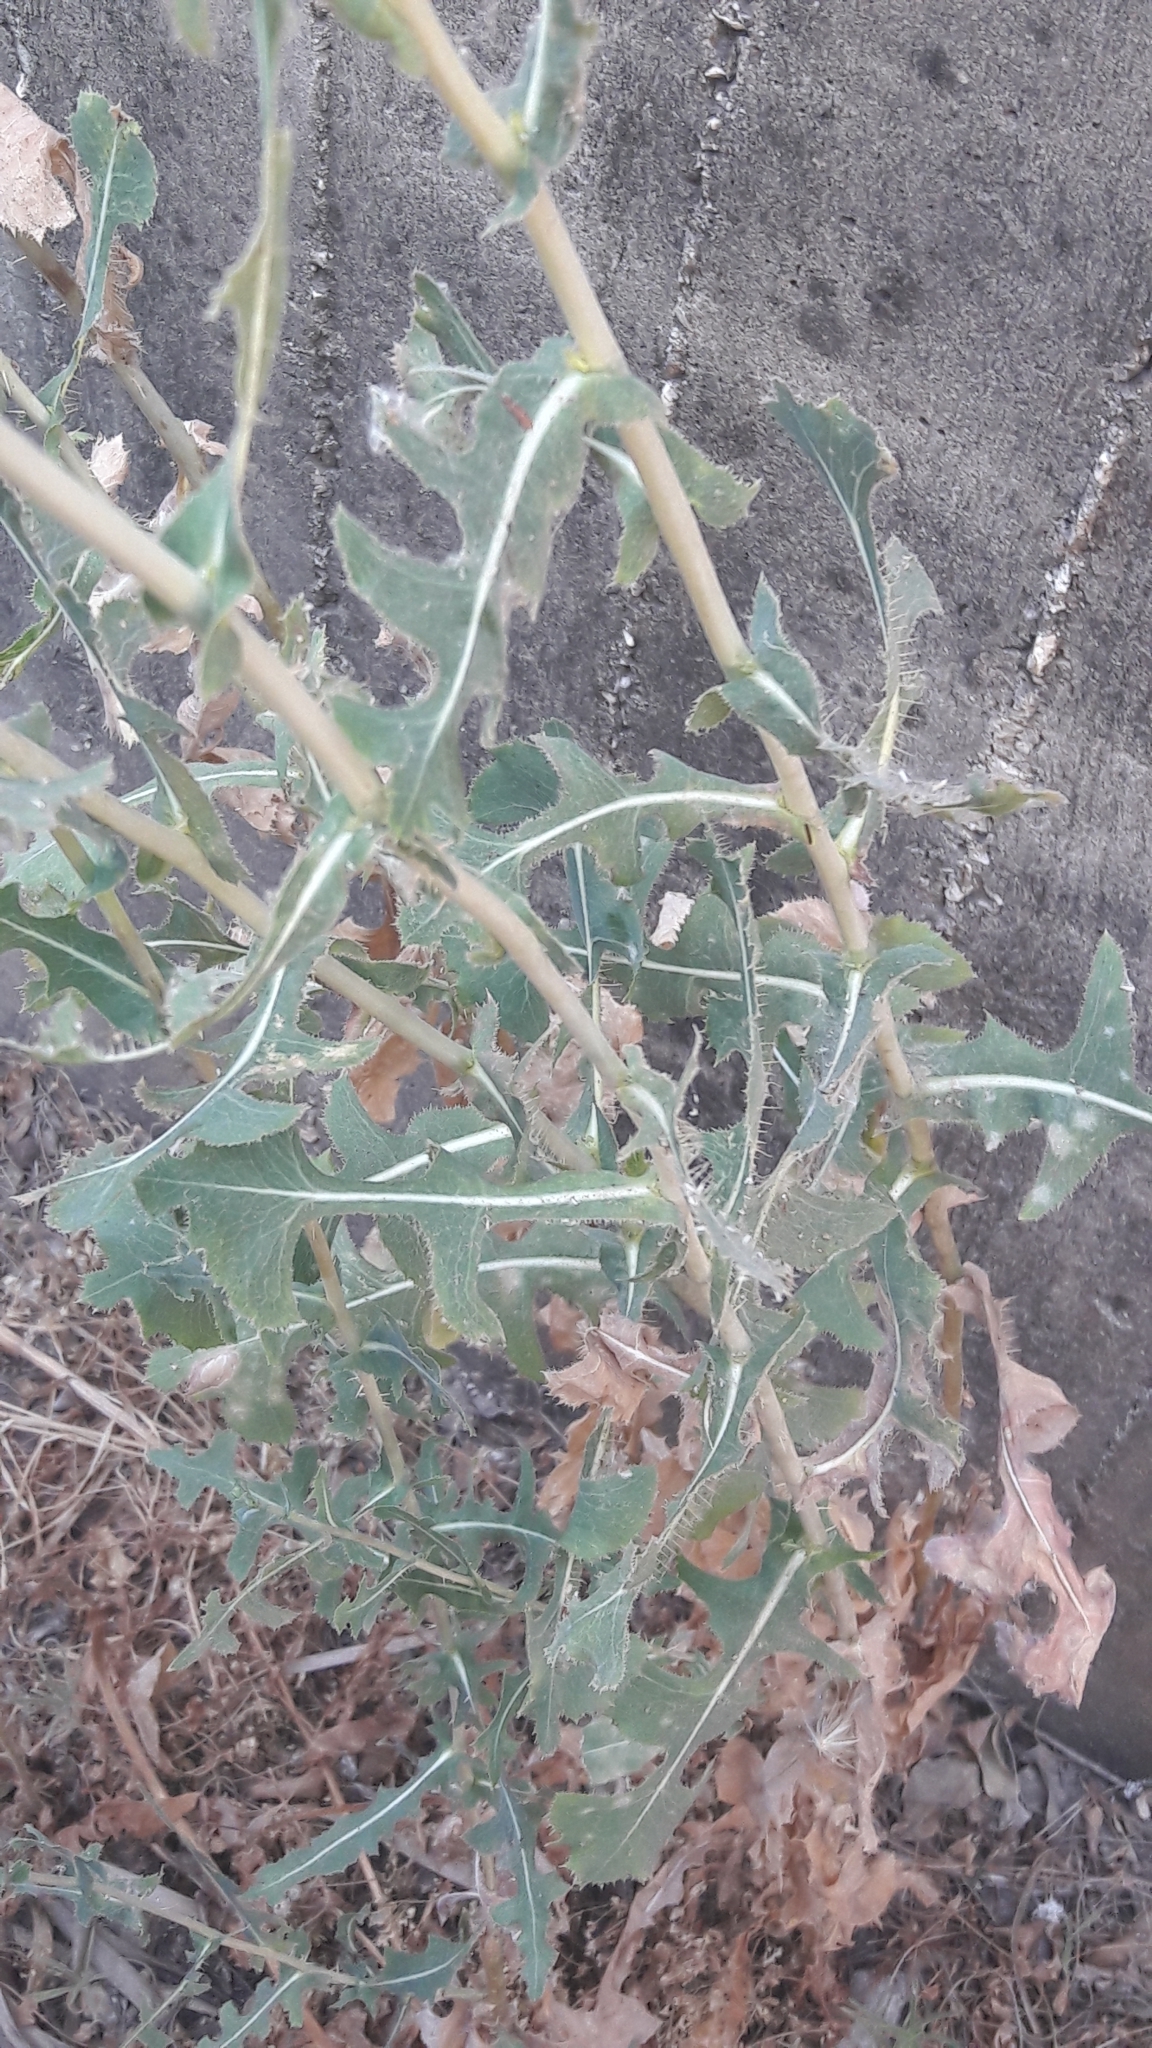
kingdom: Plantae
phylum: Tracheophyta
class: Magnoliopsida
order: Asterales
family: Asteraceae
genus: Lactuca
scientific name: Lactuca serriola
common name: Prickly lettuce
